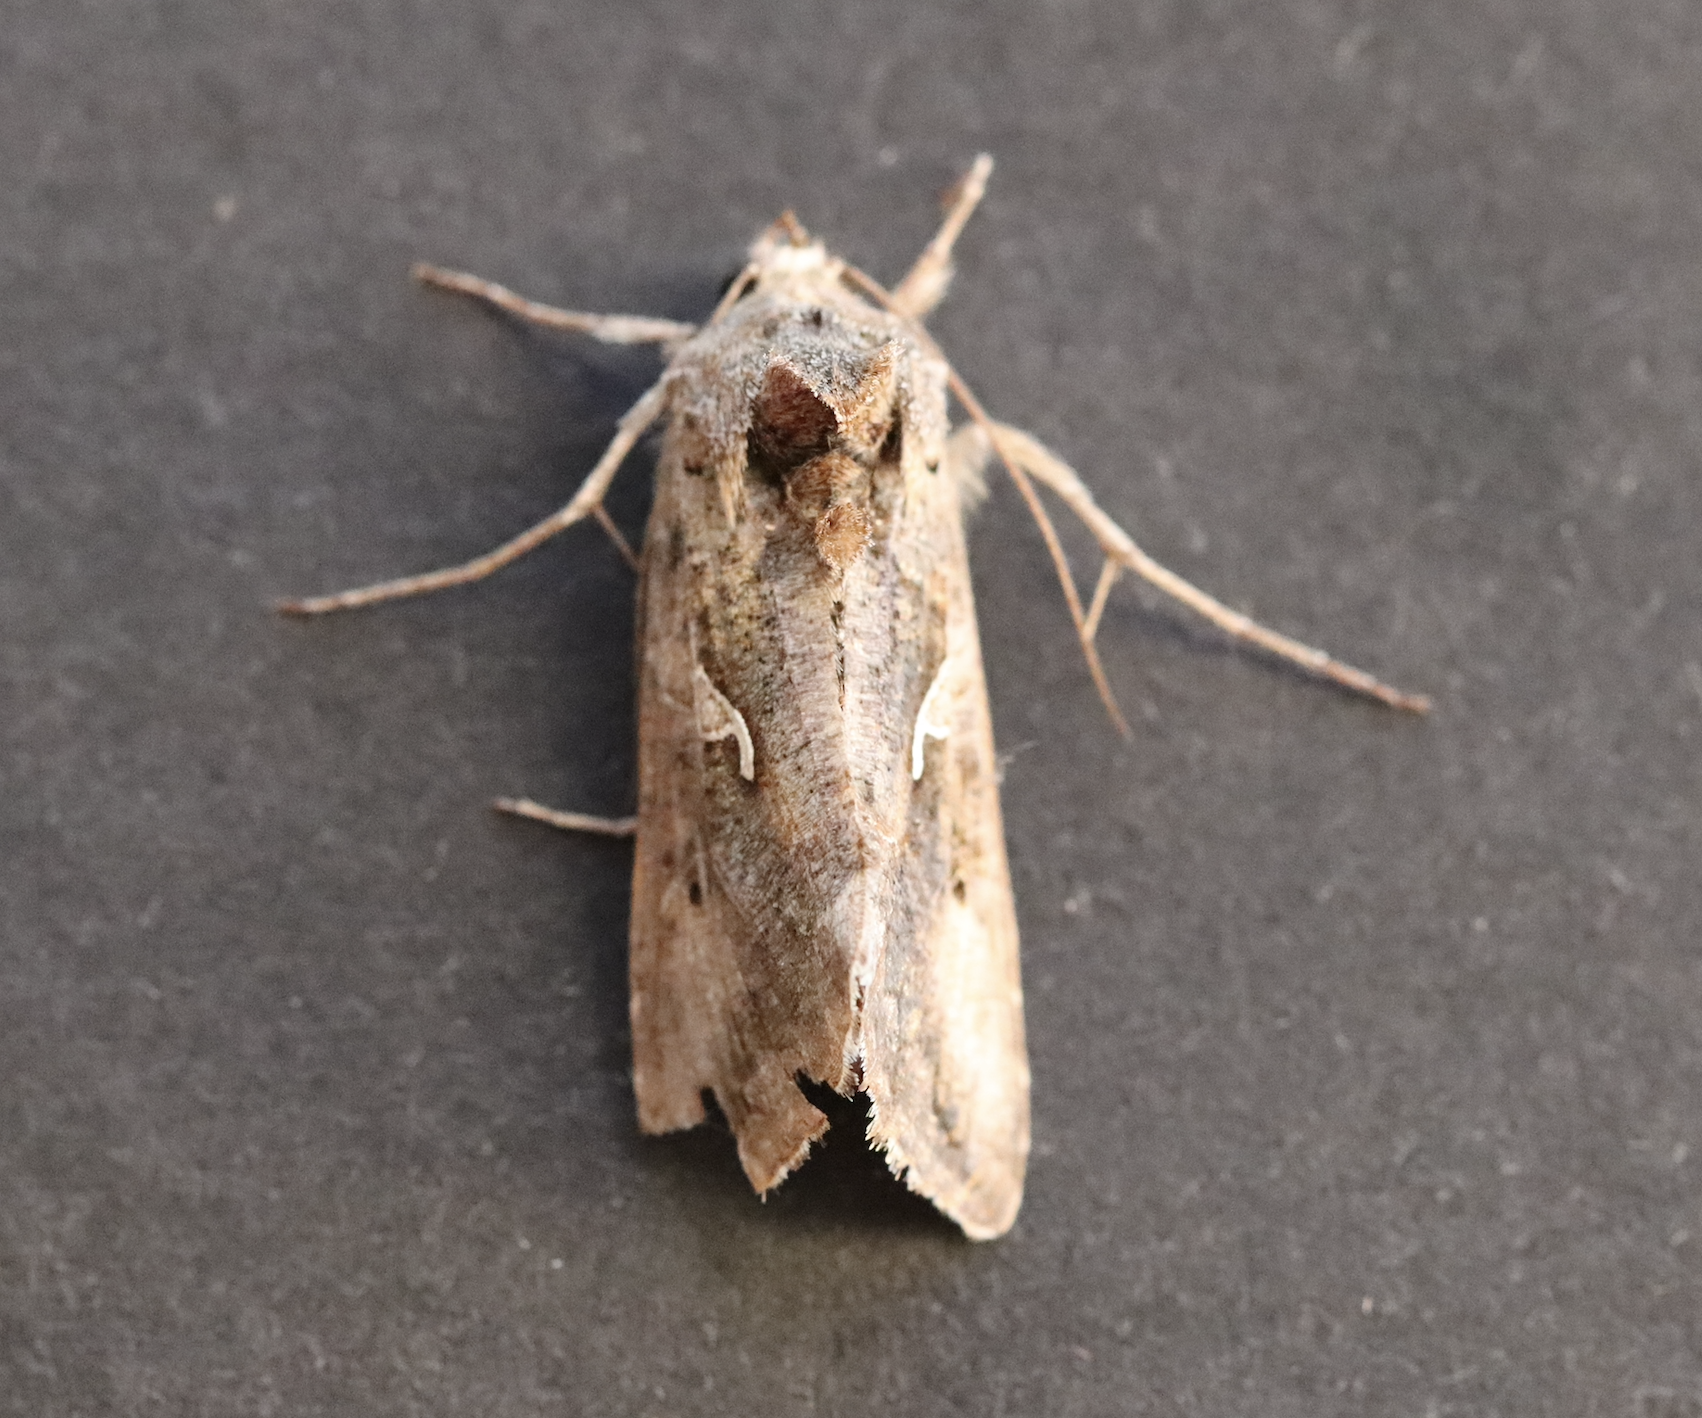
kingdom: Animalia
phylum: Arthropoda
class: Insecta
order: Lepidoptera
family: Noctuidae
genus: Autographa
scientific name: Autographa gamma
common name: Silver y
